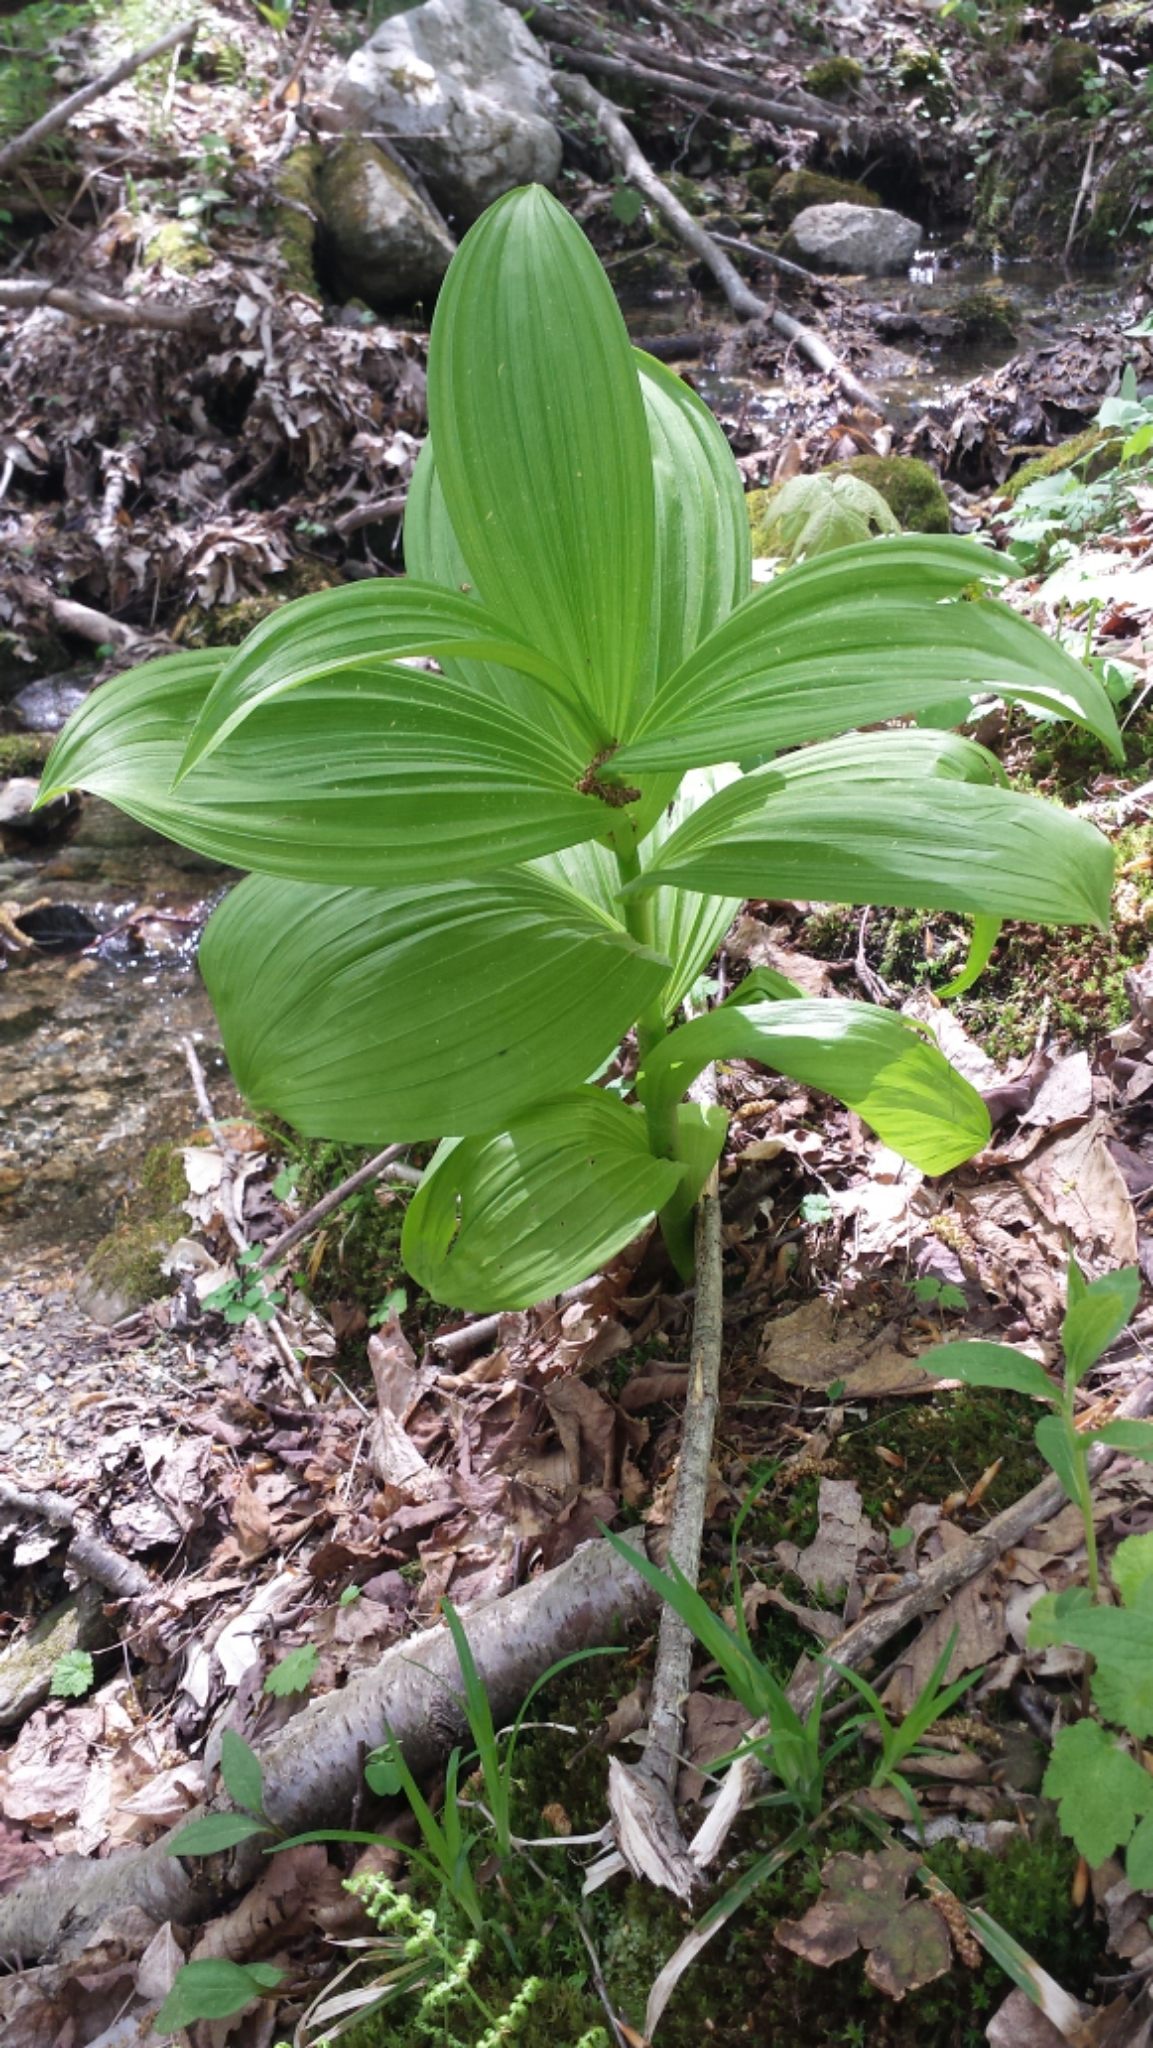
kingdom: Plantae
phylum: Tracheophyta
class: Liliopsida
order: Liliales
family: Melanthiaceae
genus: Veratrum
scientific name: Veratrum viride
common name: American false hellebore
